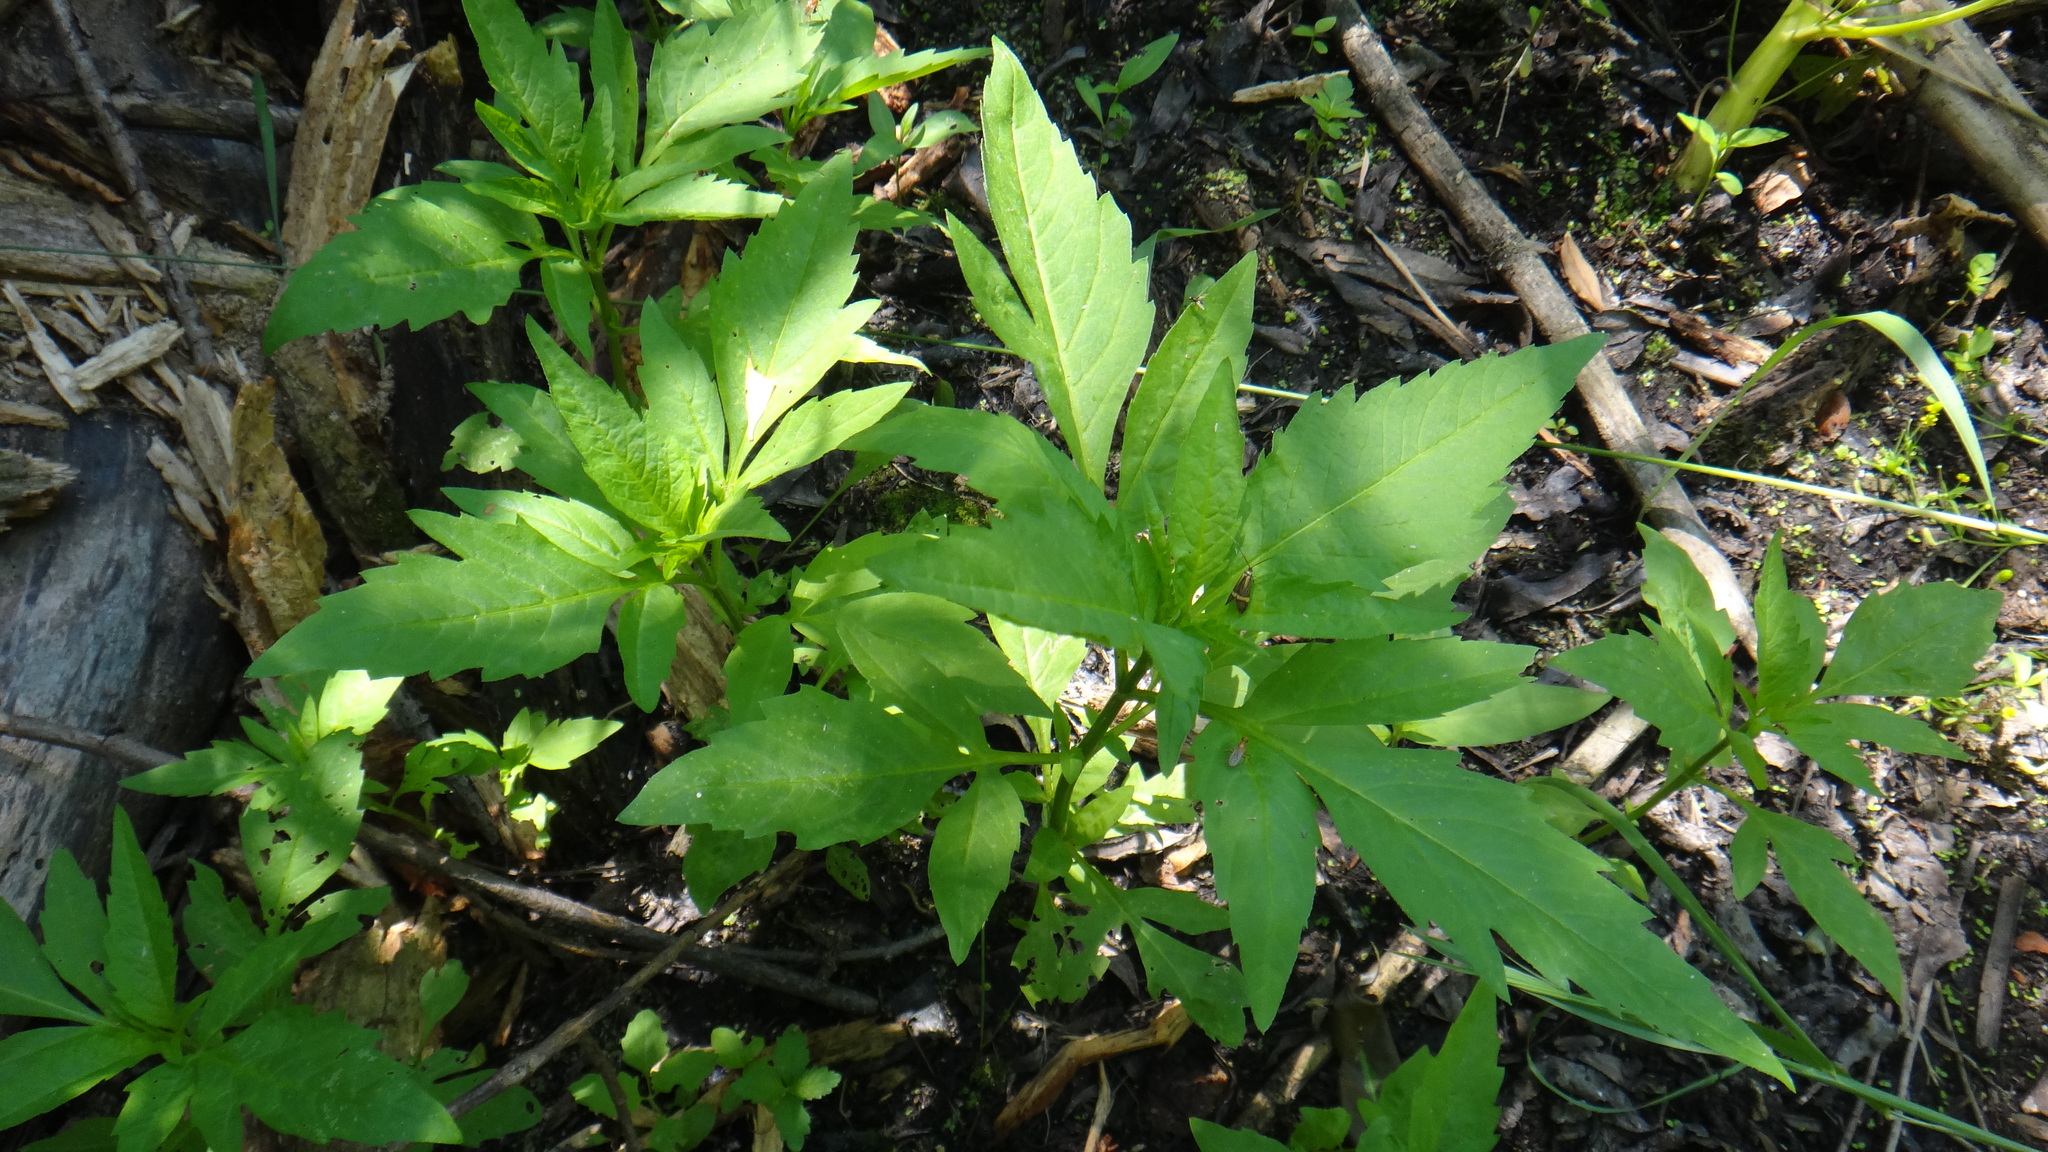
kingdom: Plantae
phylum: Tracheophyta
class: Magnoliopsida
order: Asterales
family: Asteraceae
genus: Bidens
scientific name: Bidens tripartita
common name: Trifid bur-marigold
